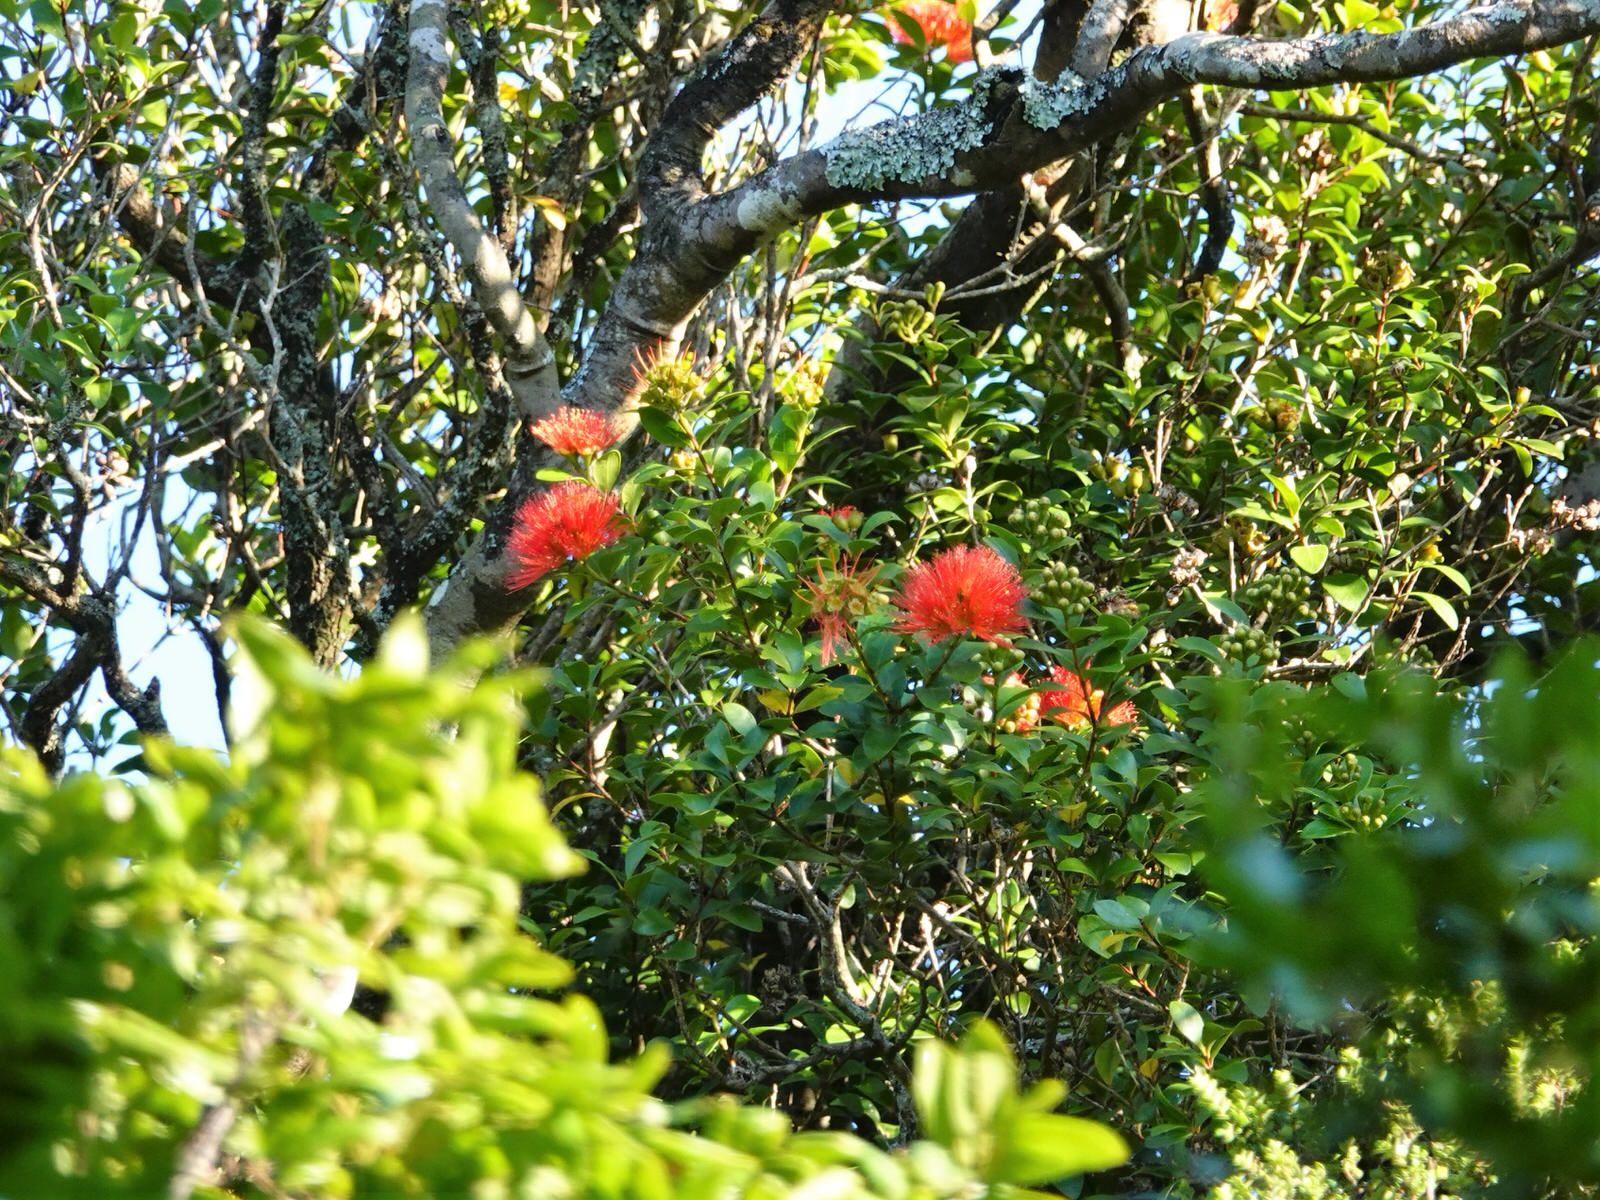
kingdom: Plantae
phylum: Tracheophyta
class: Magnoliopsida
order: Myrtales
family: Myrtaceae
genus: Metrosideros
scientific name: Metrosideros fulgens
